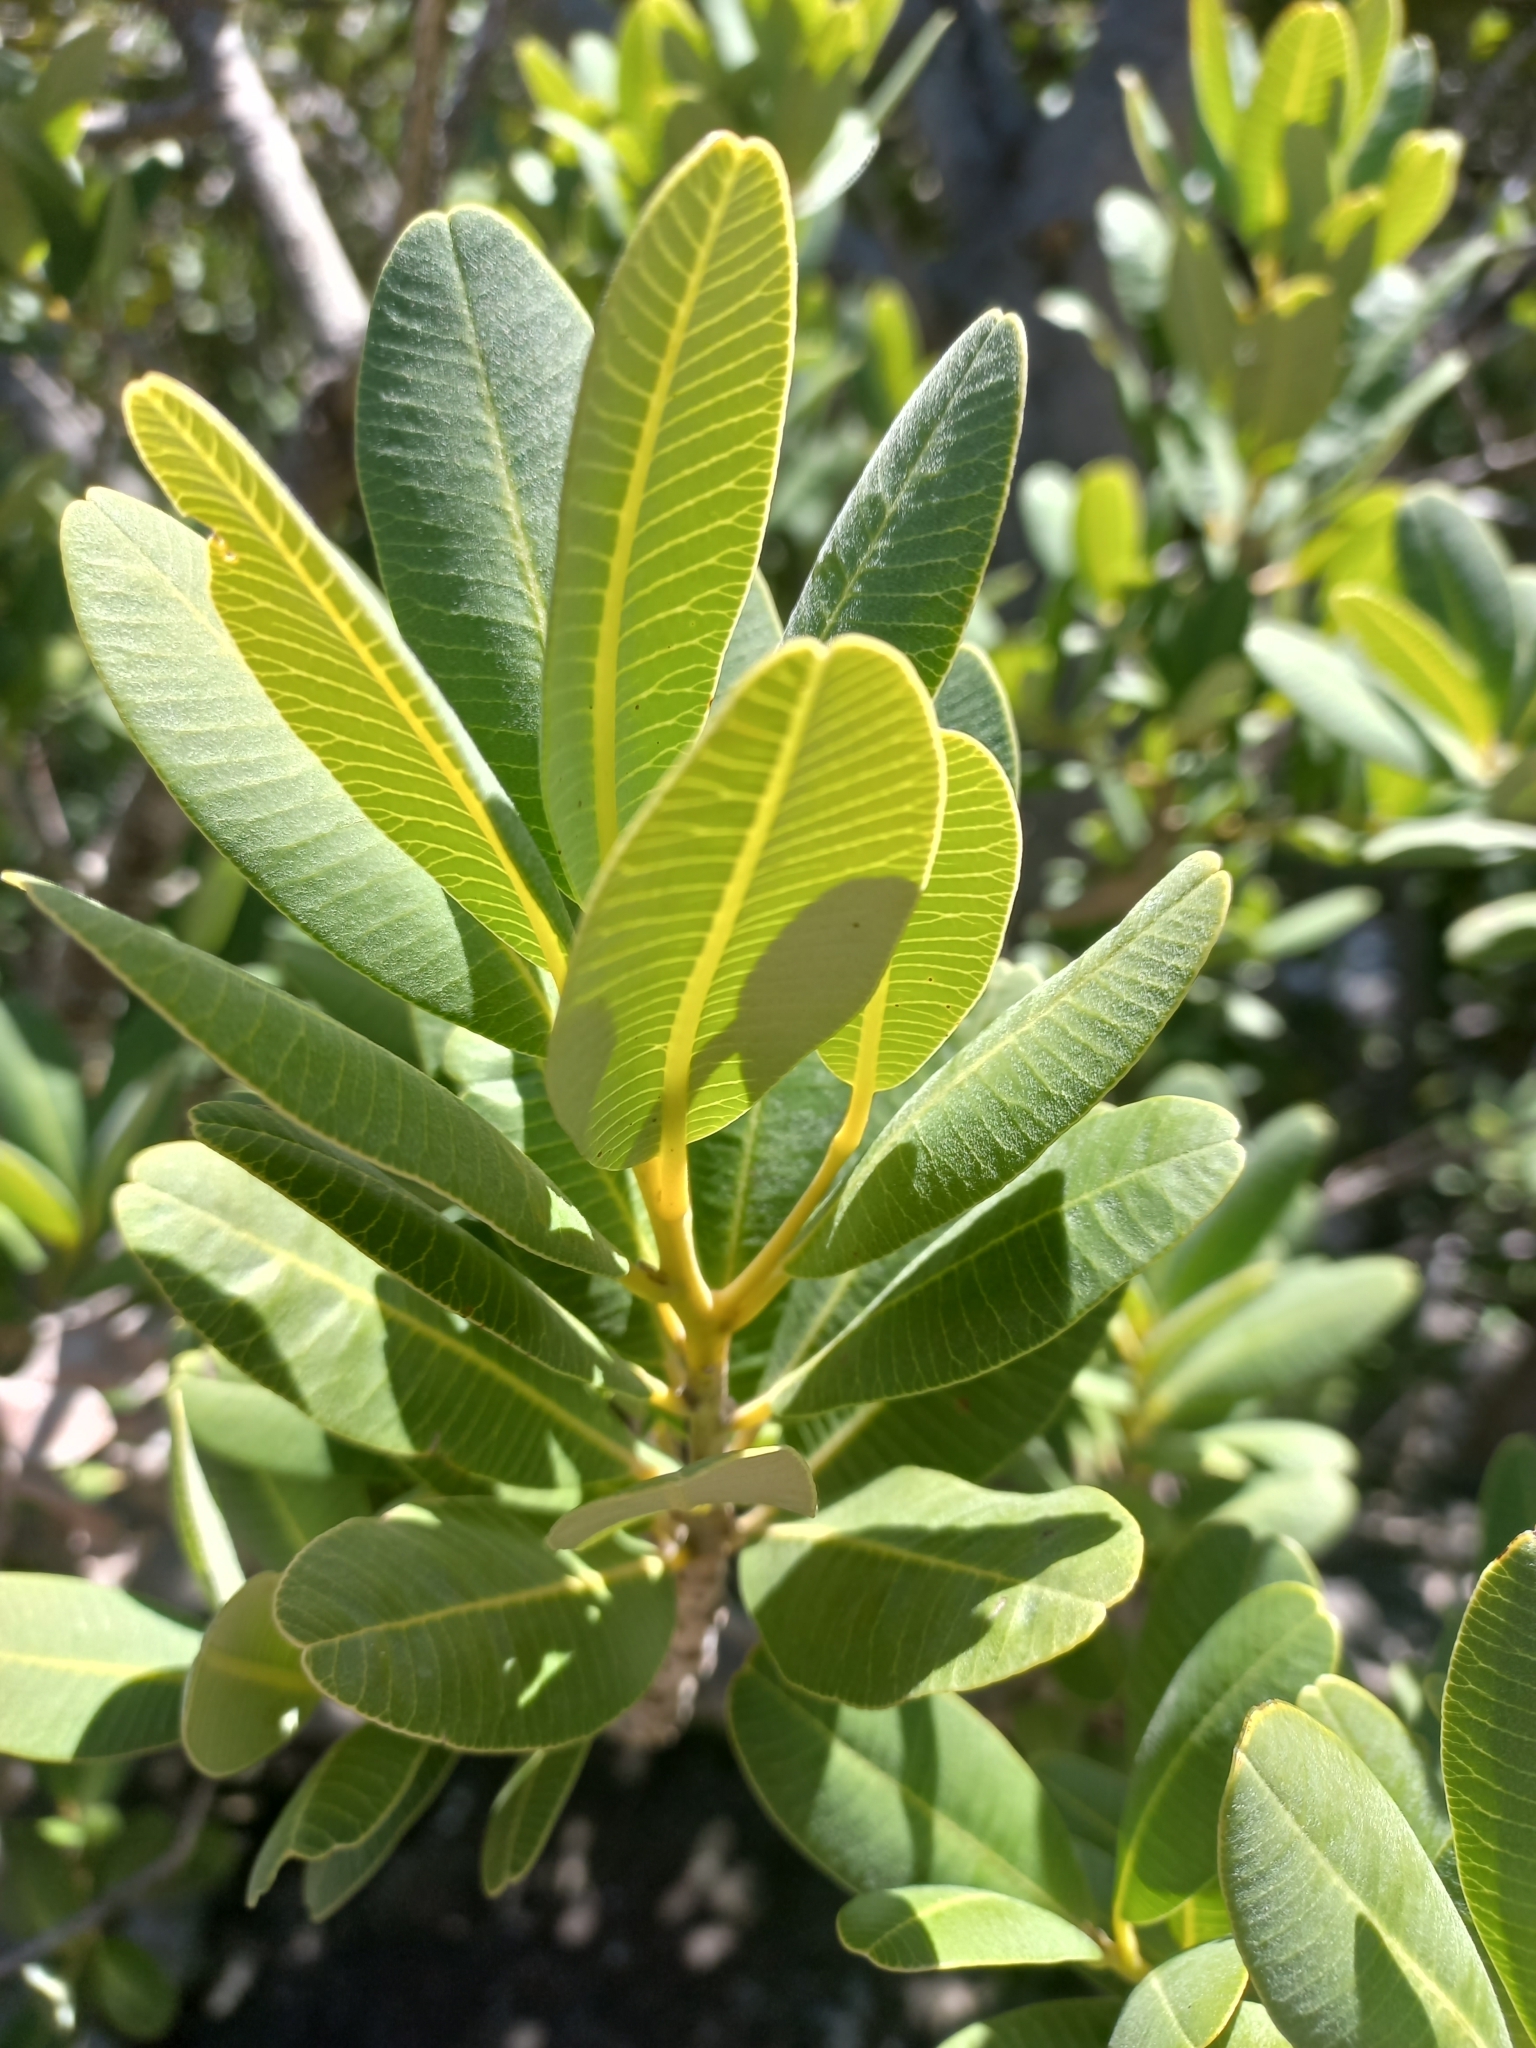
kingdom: Plantae
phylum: Tracheophyta
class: Magnoliopsida
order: Sapindales
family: Anacardiaceae
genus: Heeria
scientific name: Heeria argentea
